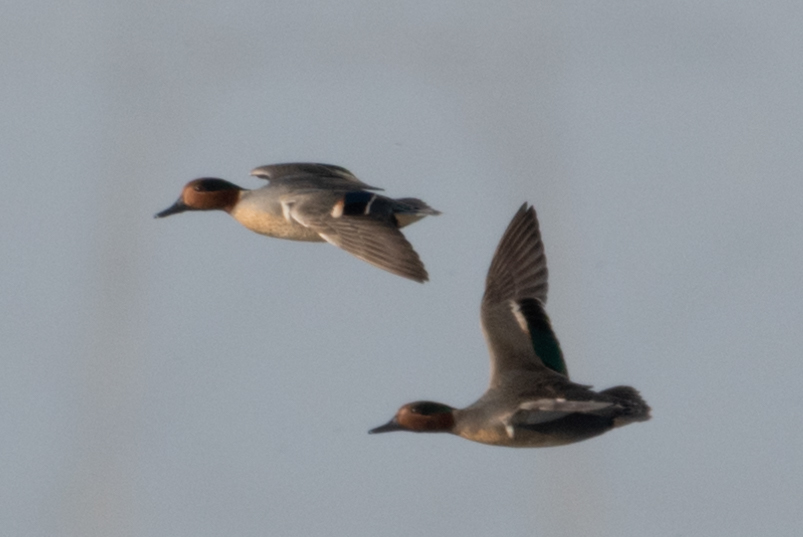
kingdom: Animalia
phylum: Chordata
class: Aves
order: Anseriformes
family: Anatidae
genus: Anas
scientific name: Anas crecca
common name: Eurasian teal
